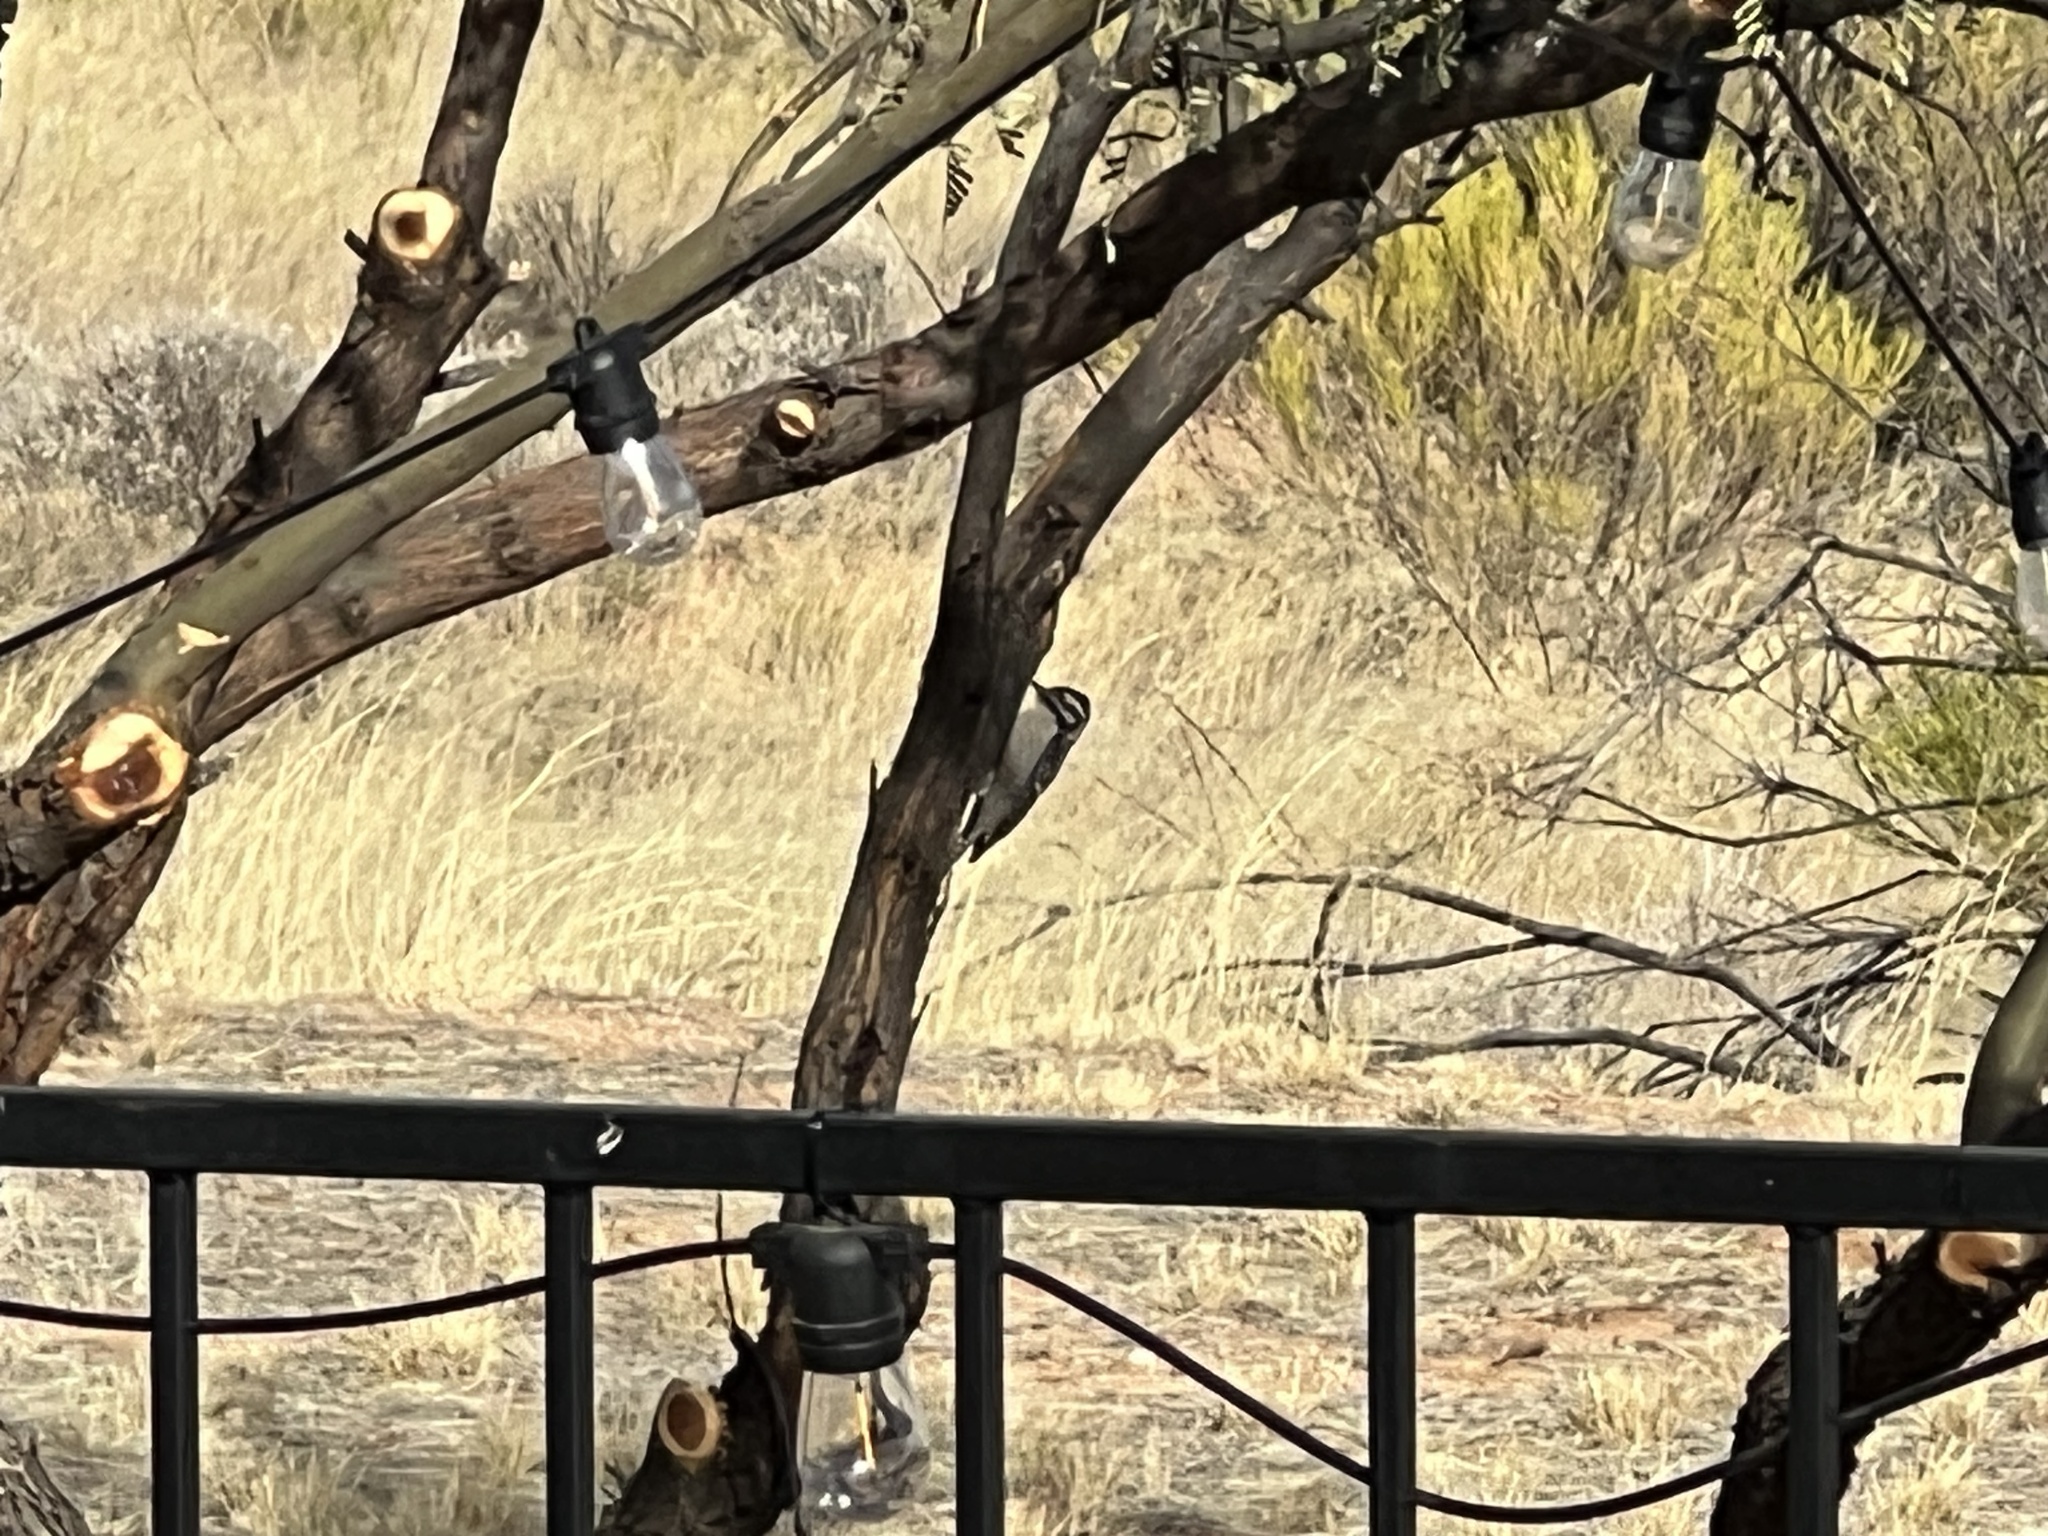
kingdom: Animalia
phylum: Chordata
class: Aves
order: Piciformes
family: Picidae
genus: Dryobates
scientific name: Dryobates scalaris
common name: Ladder-backed woodpecker
